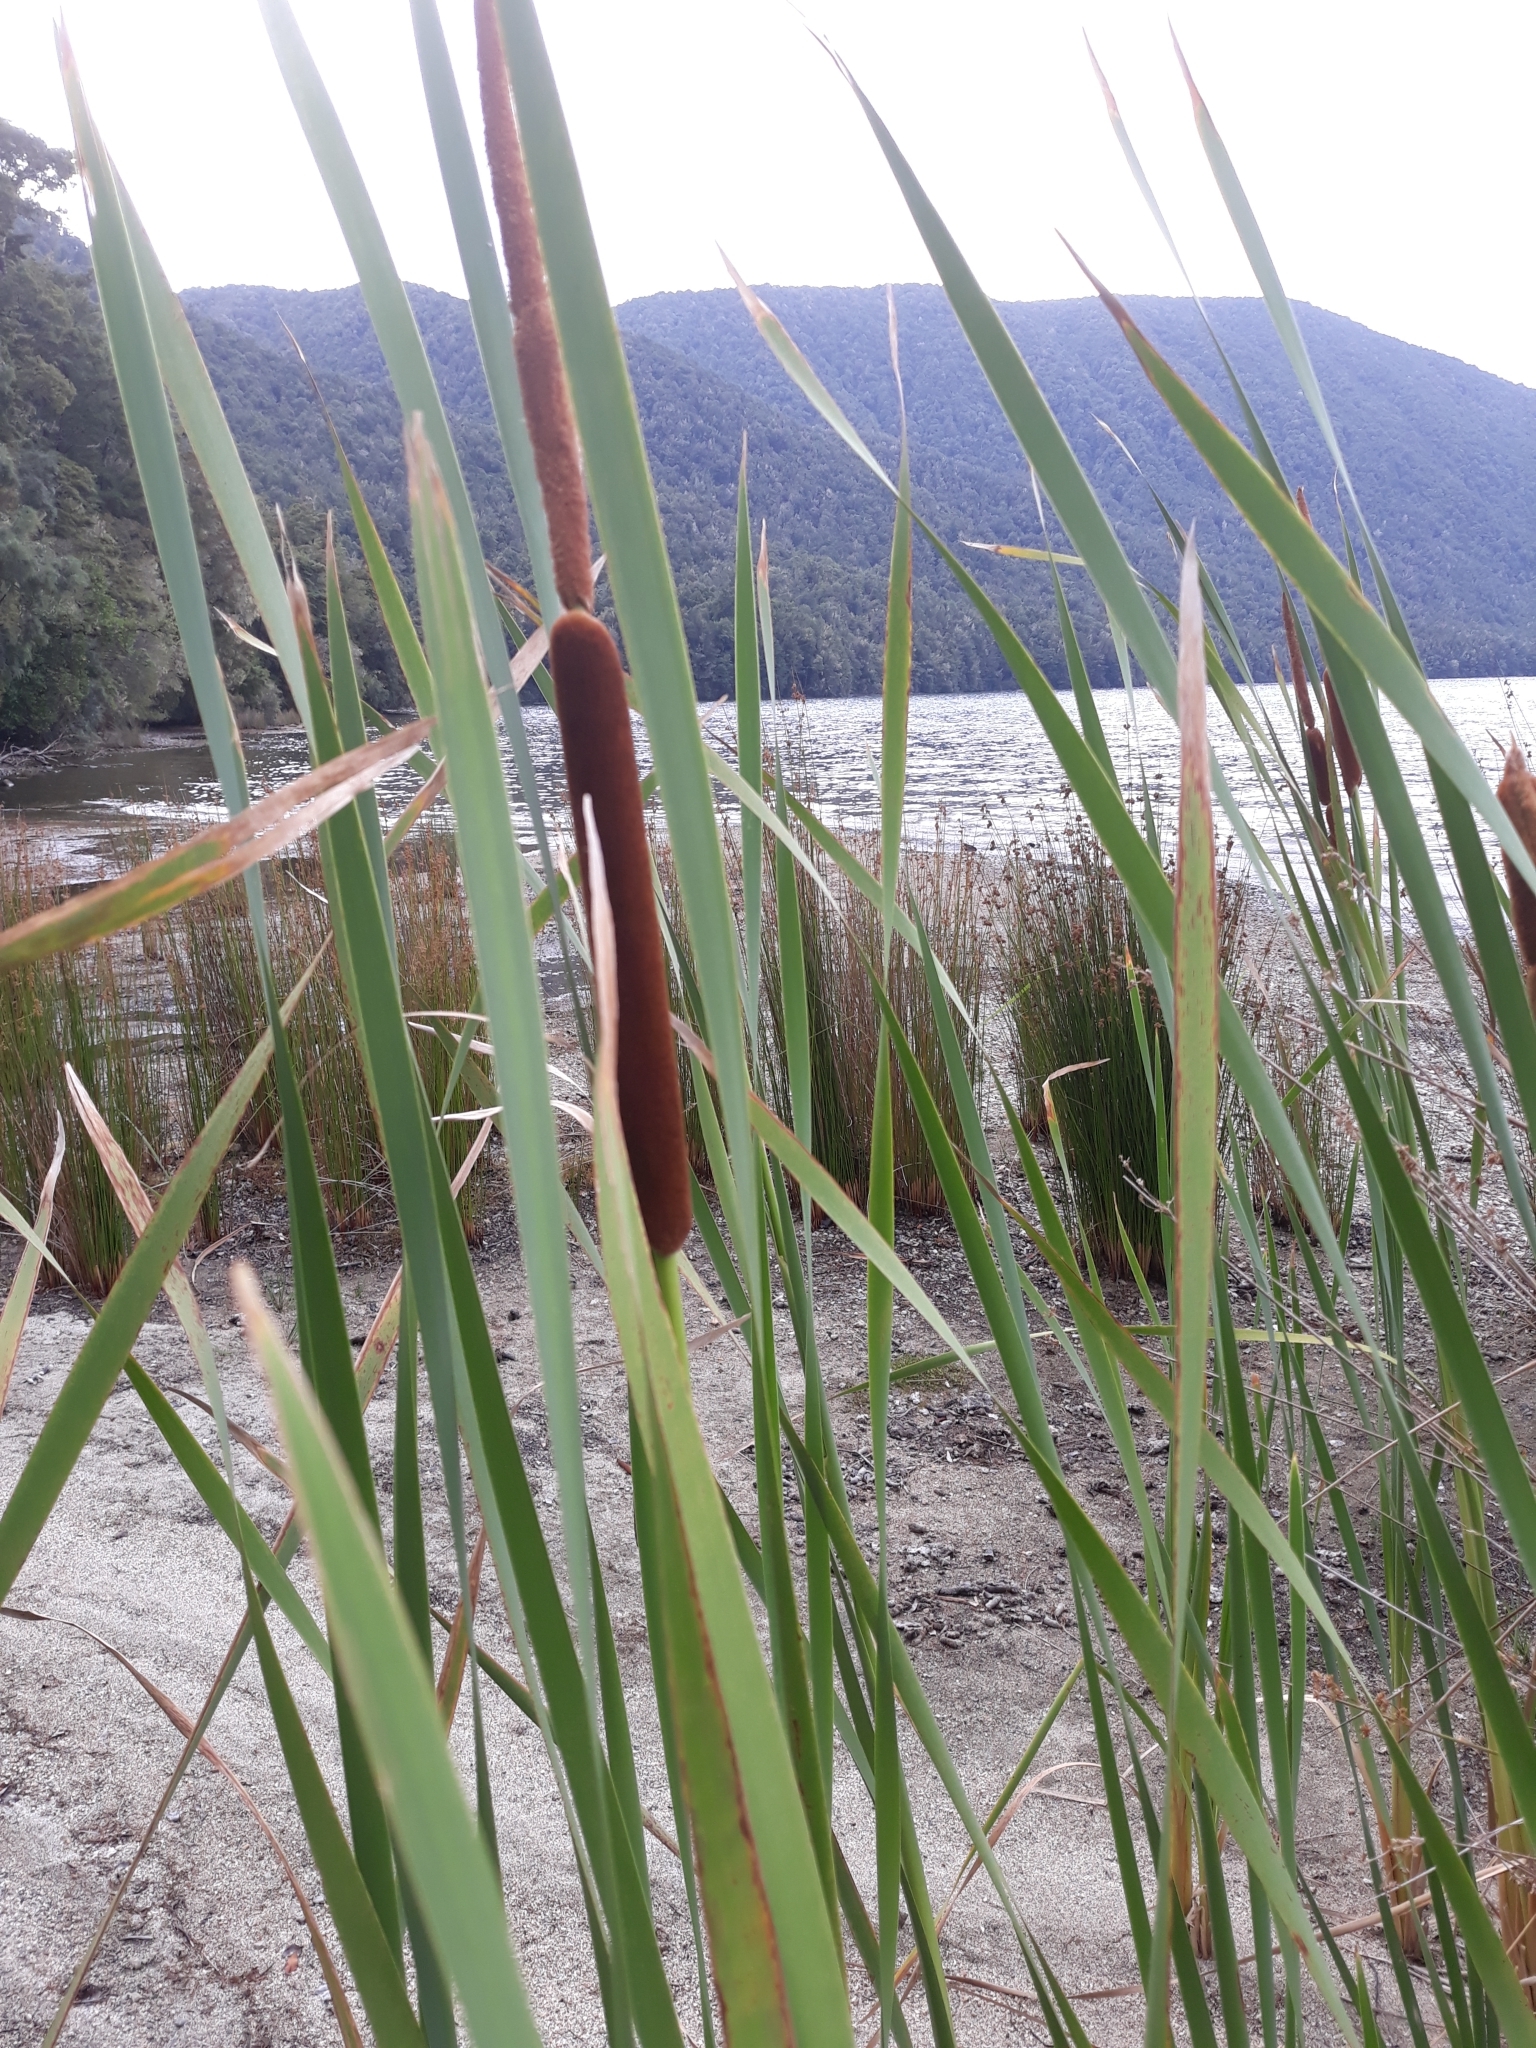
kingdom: Plantae
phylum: Tracheophyta
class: Liliopsida
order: Poales
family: Typhaceae
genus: Typha
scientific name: Typha orientalis
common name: Bullrush
